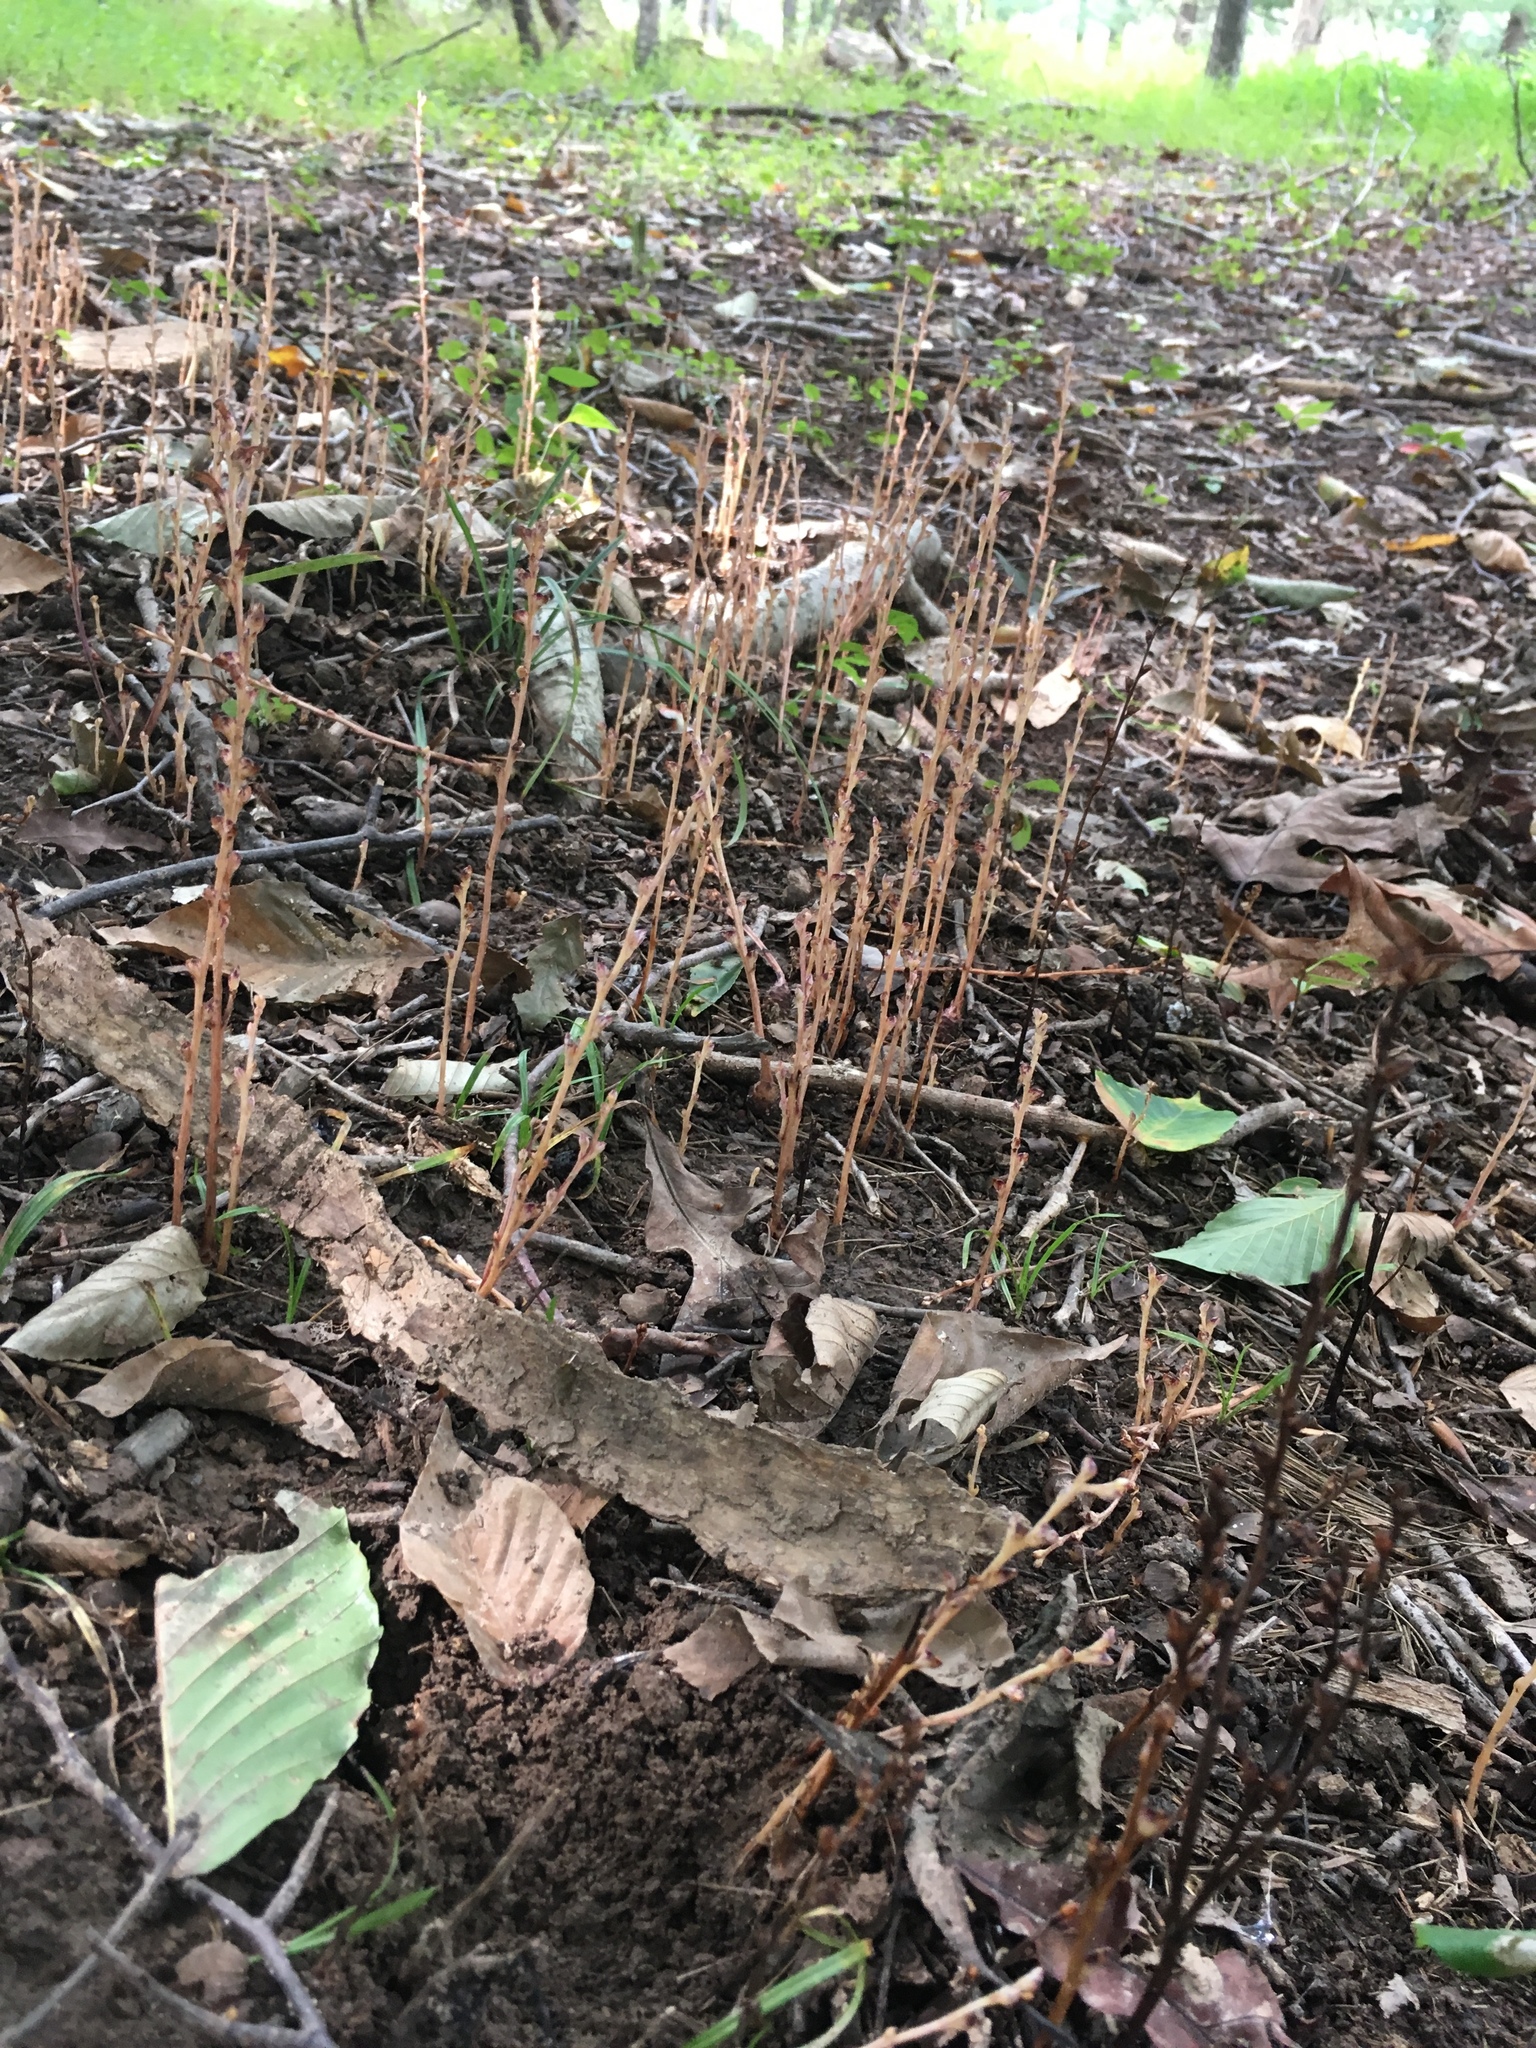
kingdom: Plantae
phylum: Tracheophyta
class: Magnoliopsida
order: Lamiales
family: Orobanchaceae
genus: Epifagus
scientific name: Epifagus virginiana
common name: Beechdrops
